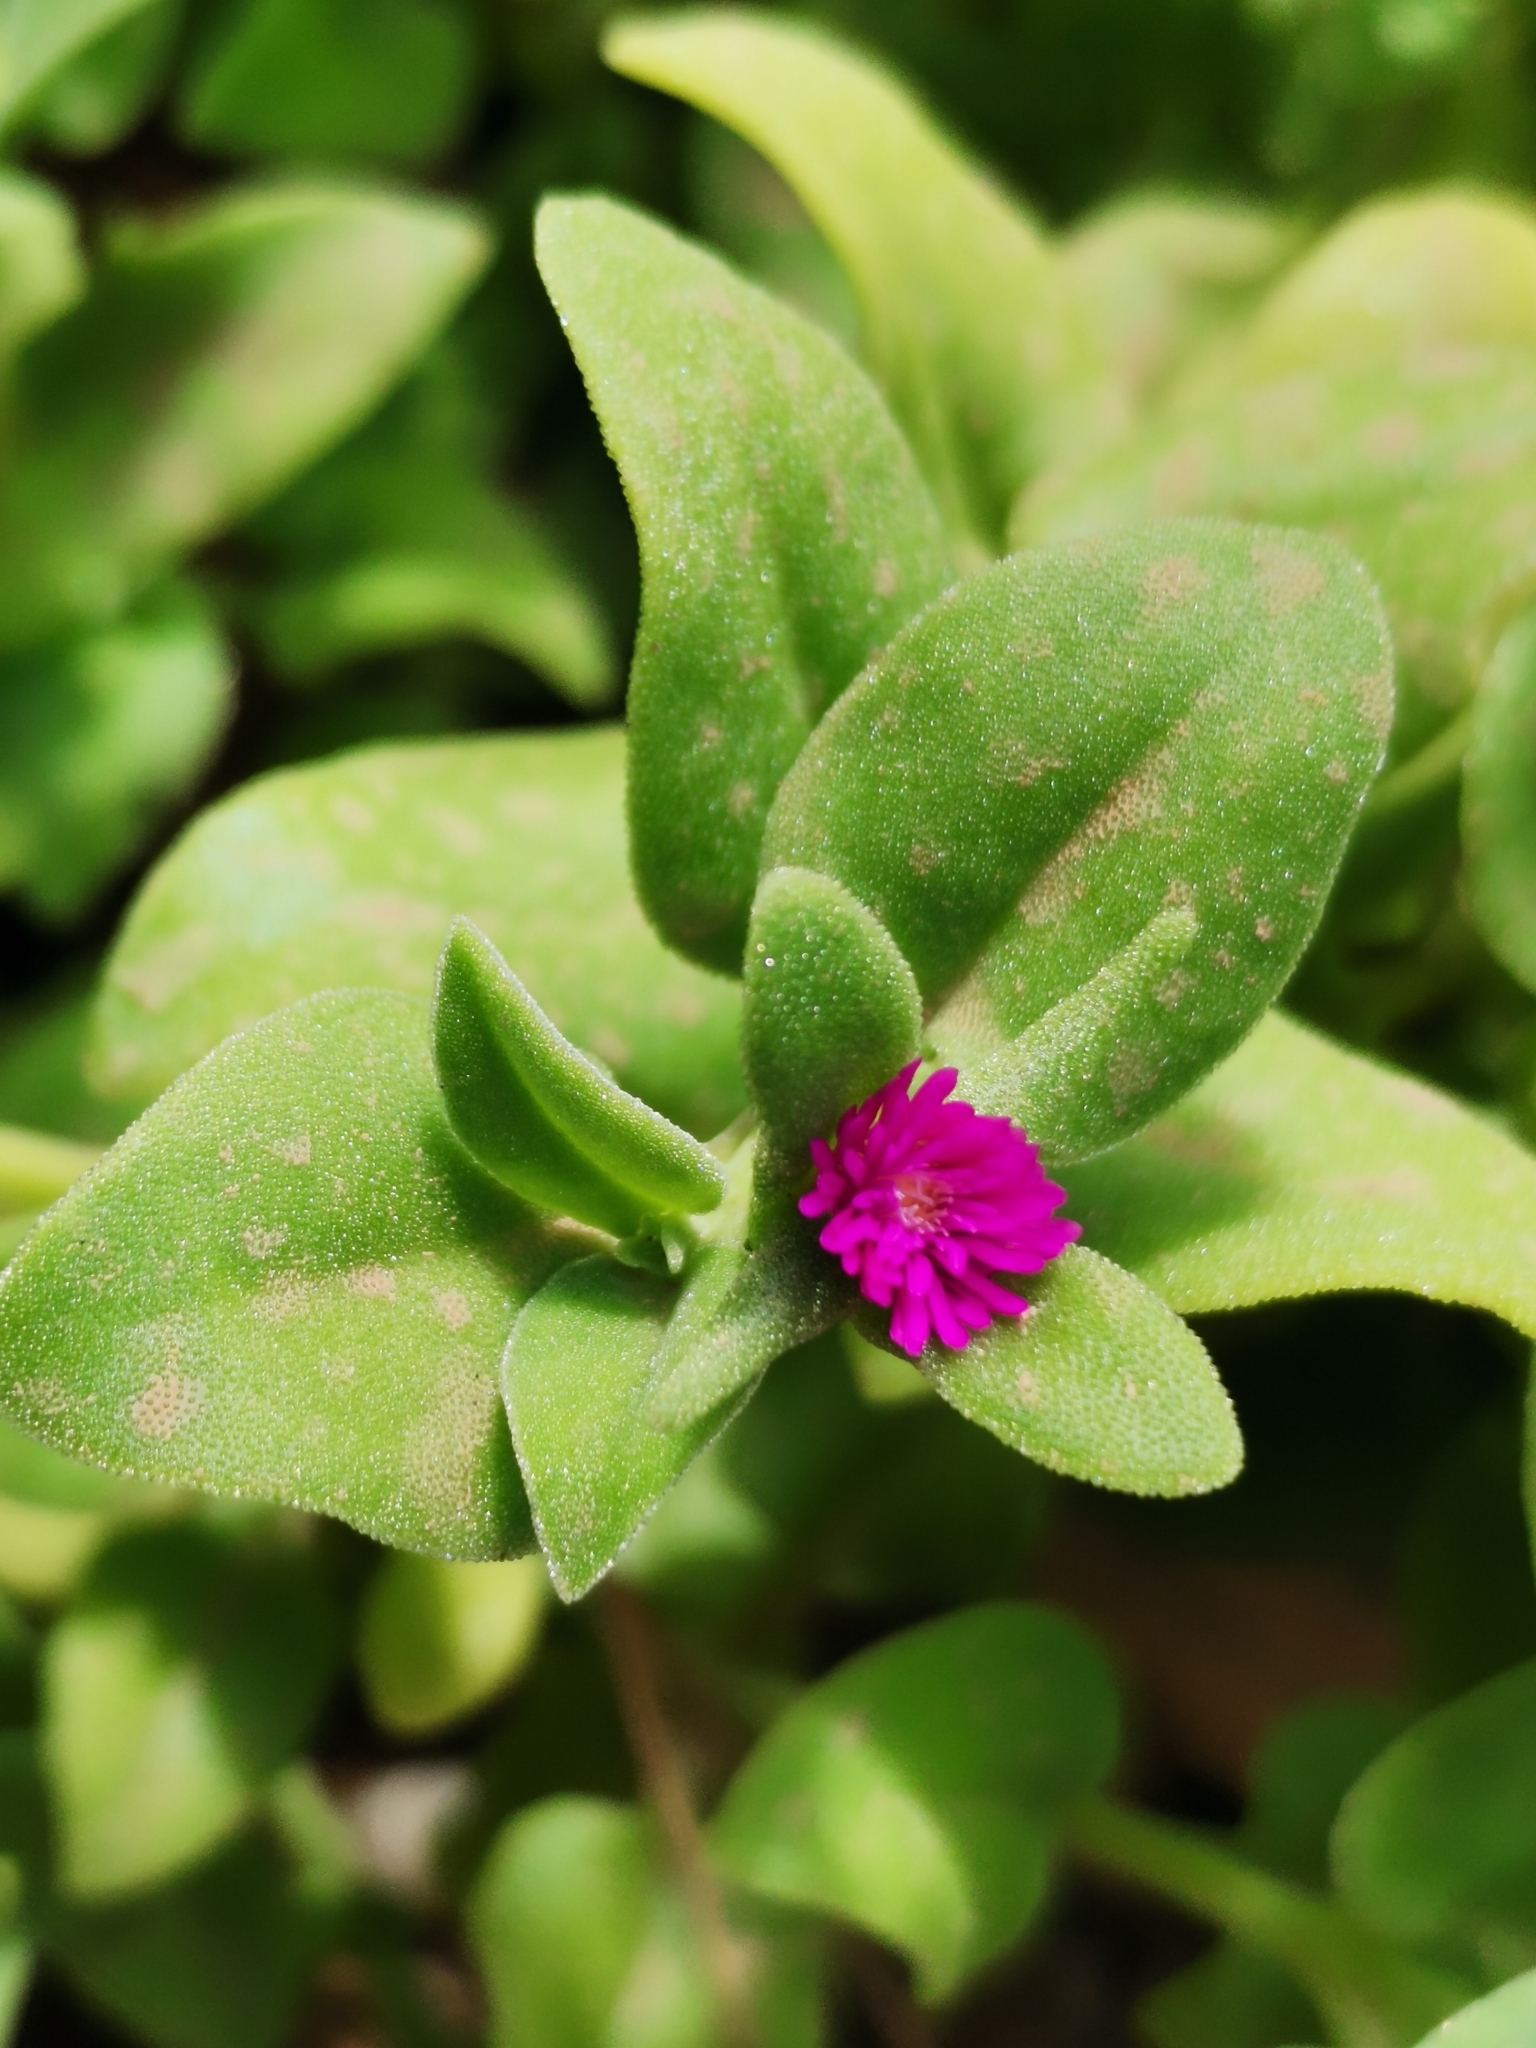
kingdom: Plantae
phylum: Tracheophyta
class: Magnoliopsida
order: Caryophyllales
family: Aizoaceae
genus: Mesembryanthemum
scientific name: Mesembryanthemum cordifolium
